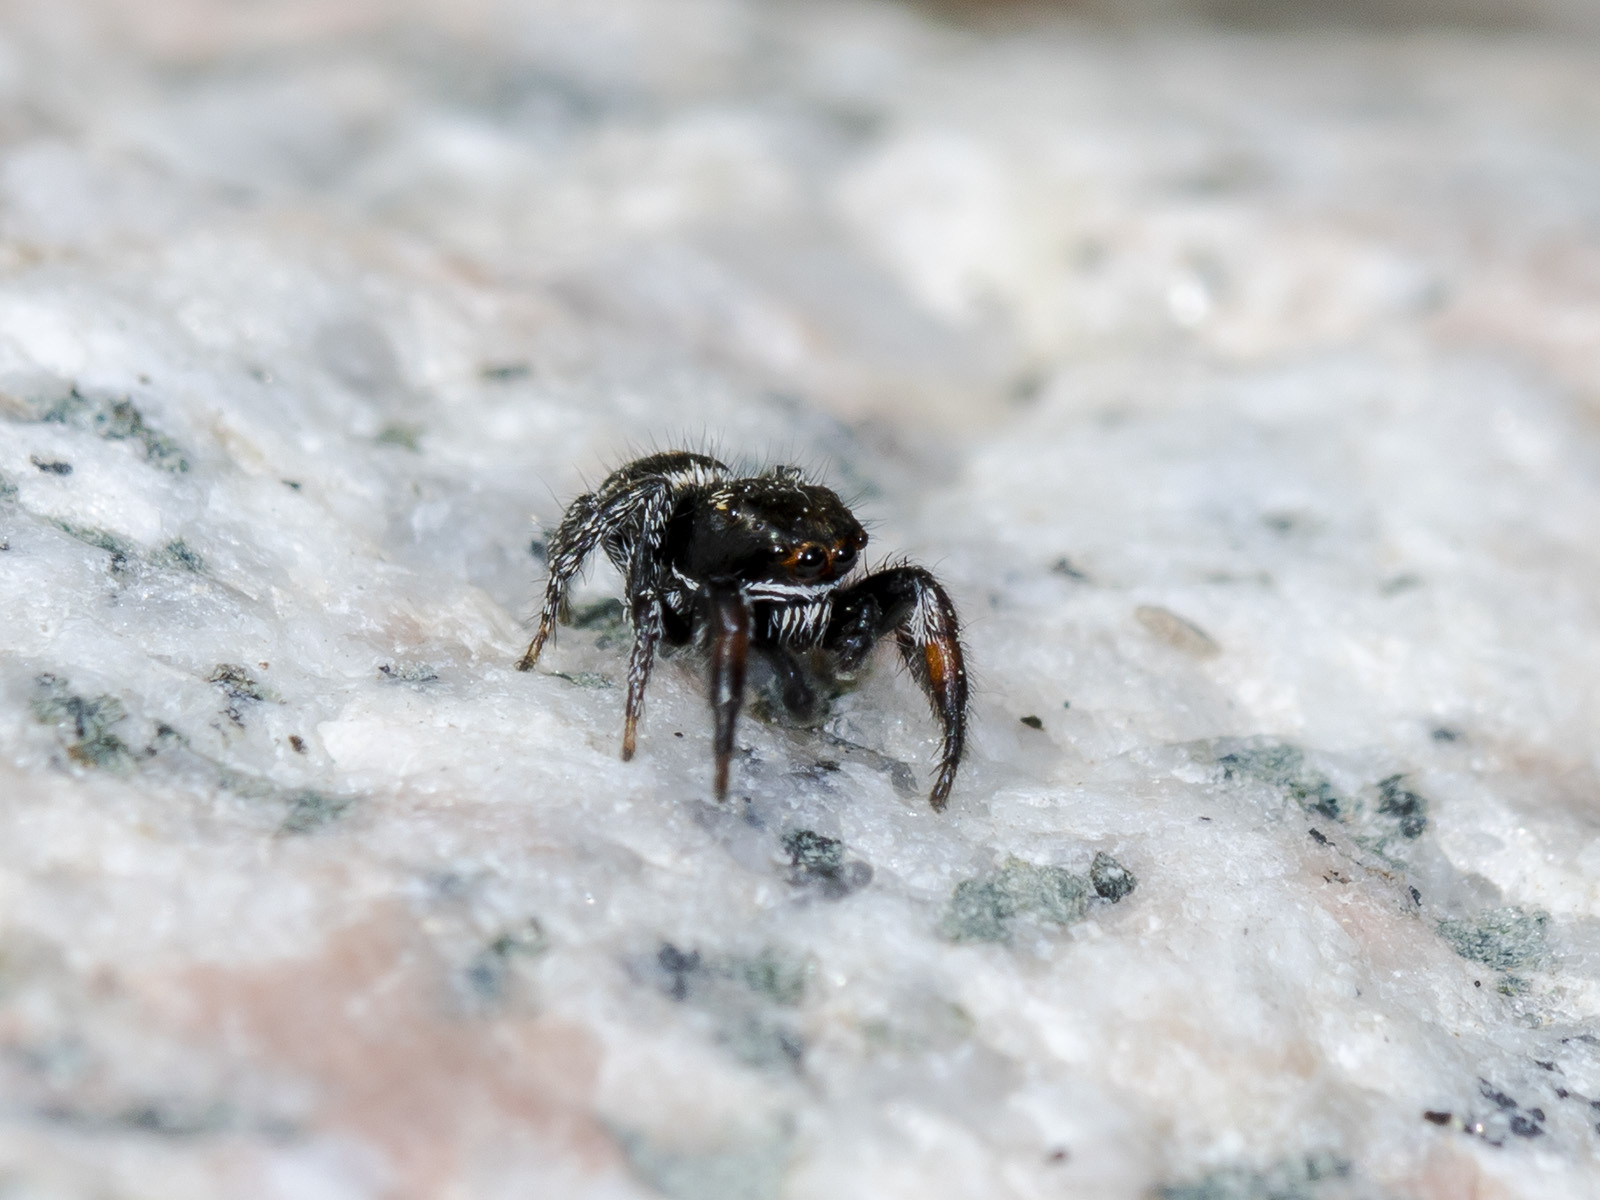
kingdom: Animalia
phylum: Arthropoda
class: Arachnida
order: Araneae
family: Salticidae
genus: Pellenes
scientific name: Pellenes allegrii
